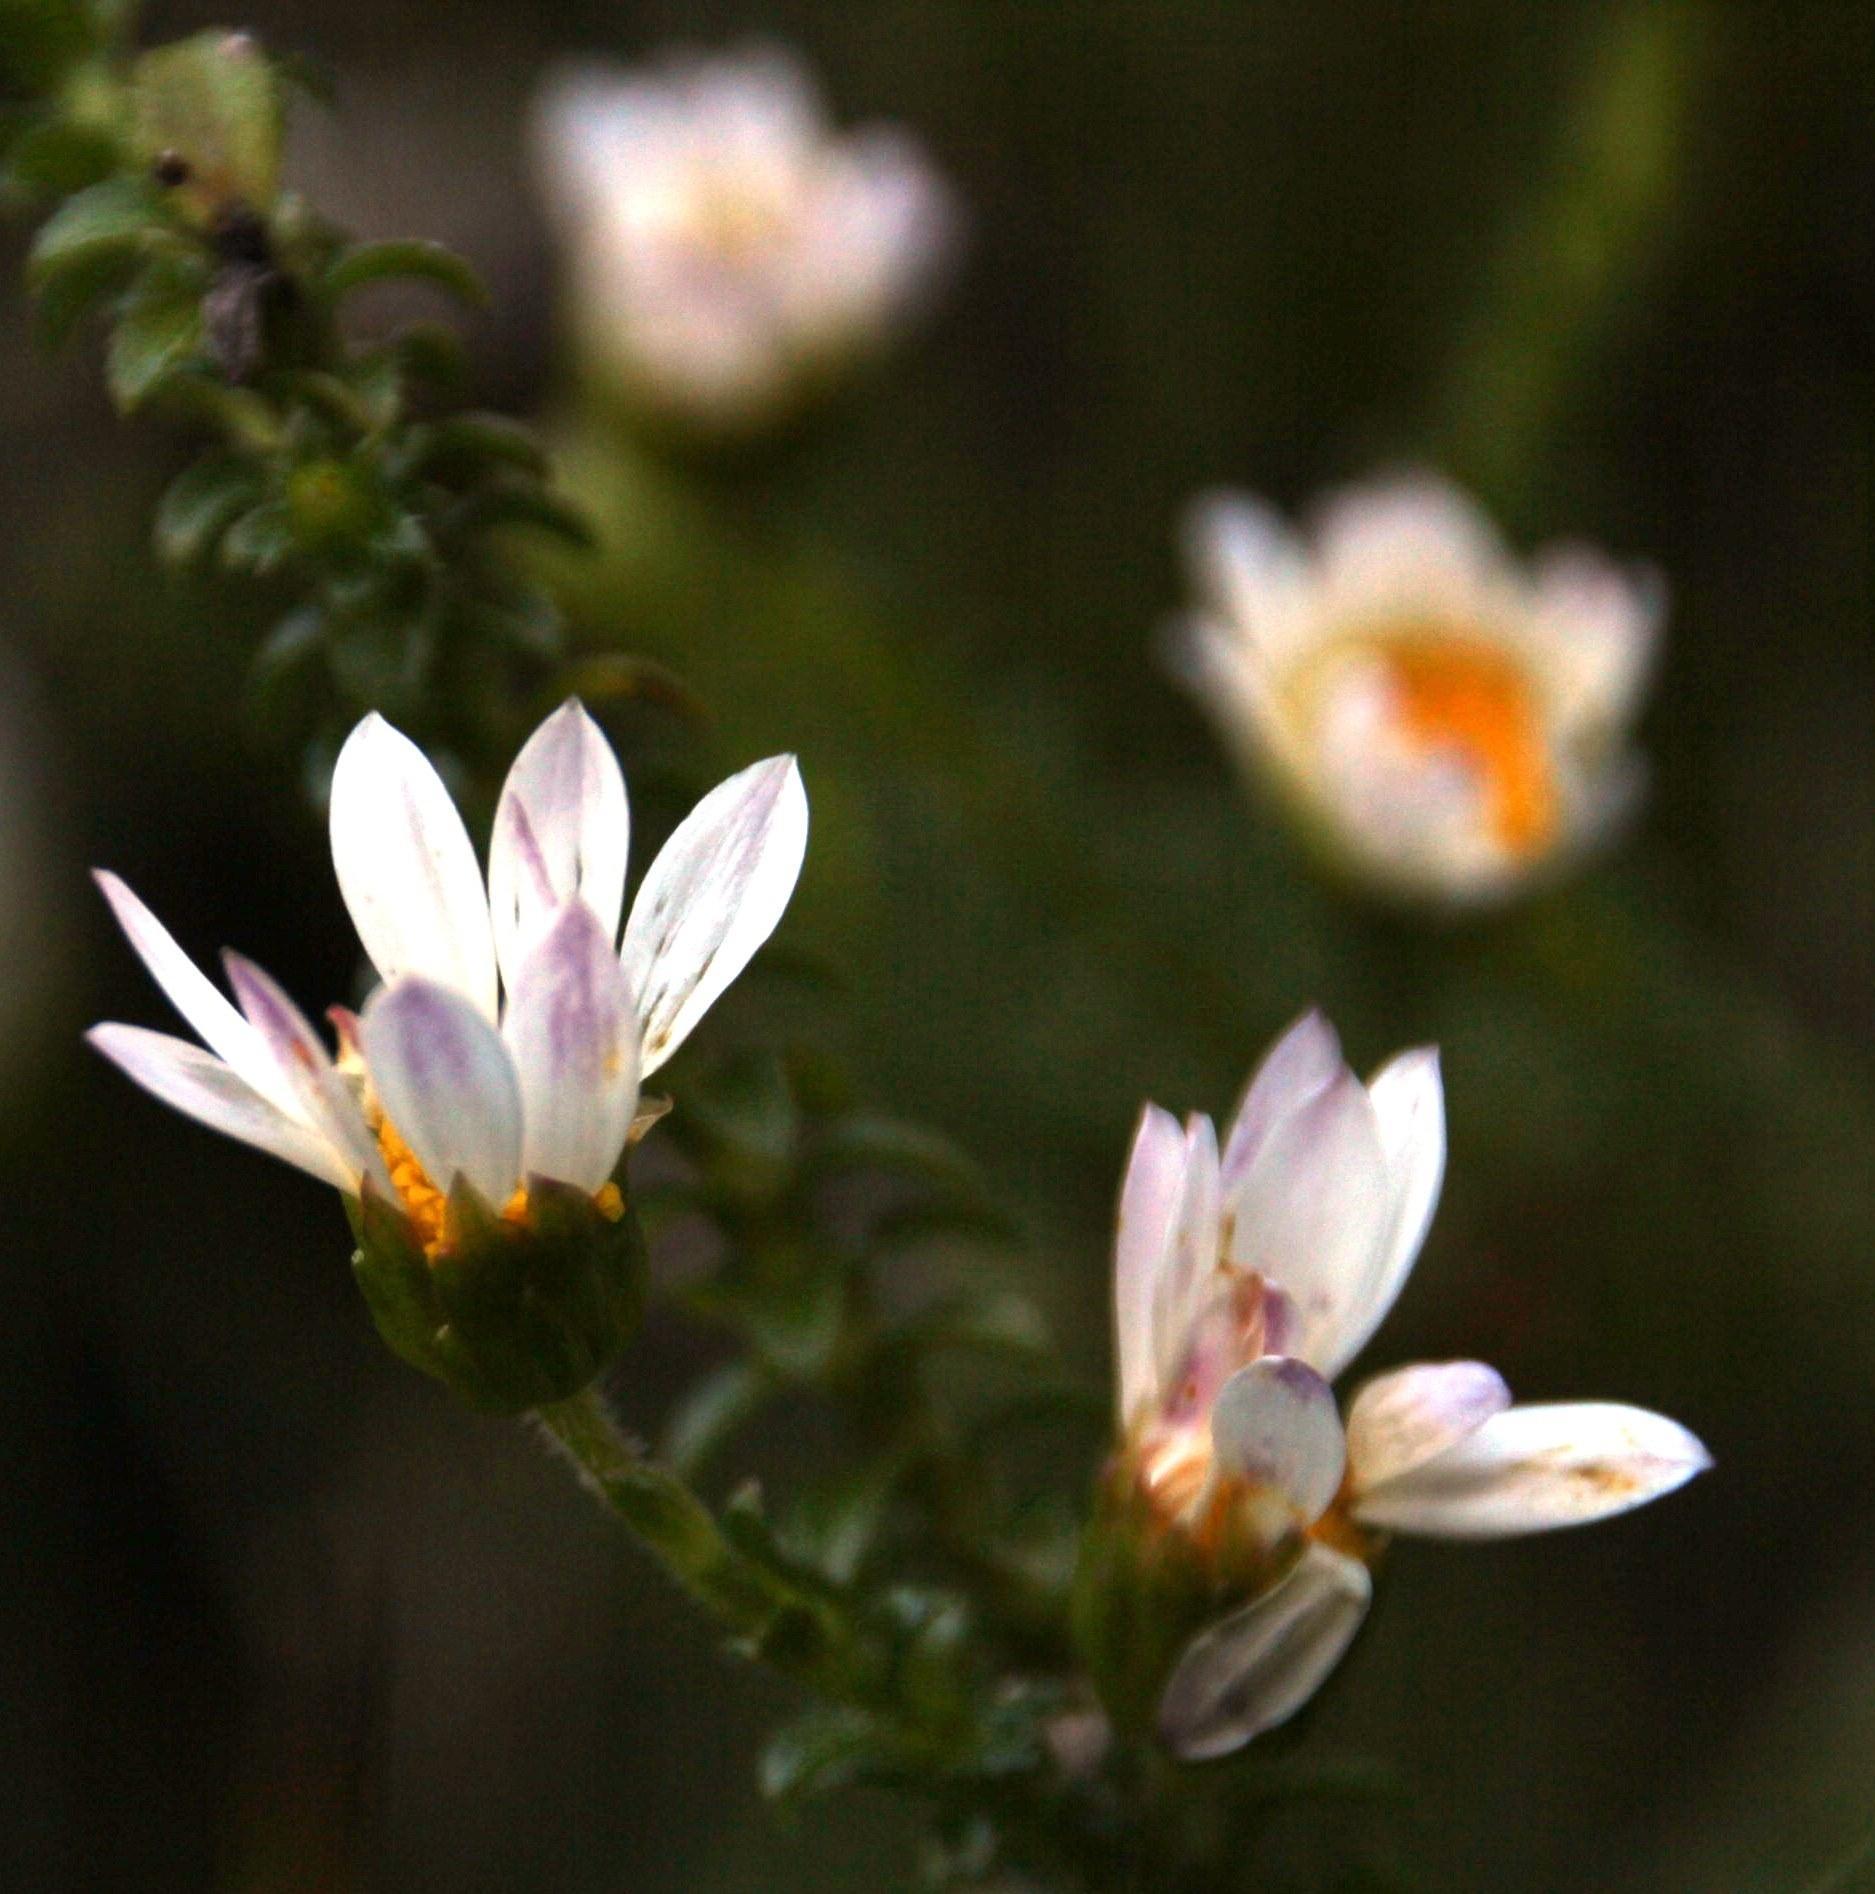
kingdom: Plantae
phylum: Tracheophyta
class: Magnoliopsida
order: Asterales
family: Asteraceae
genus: Polyarrhena
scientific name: Polyarrhena reflexa
